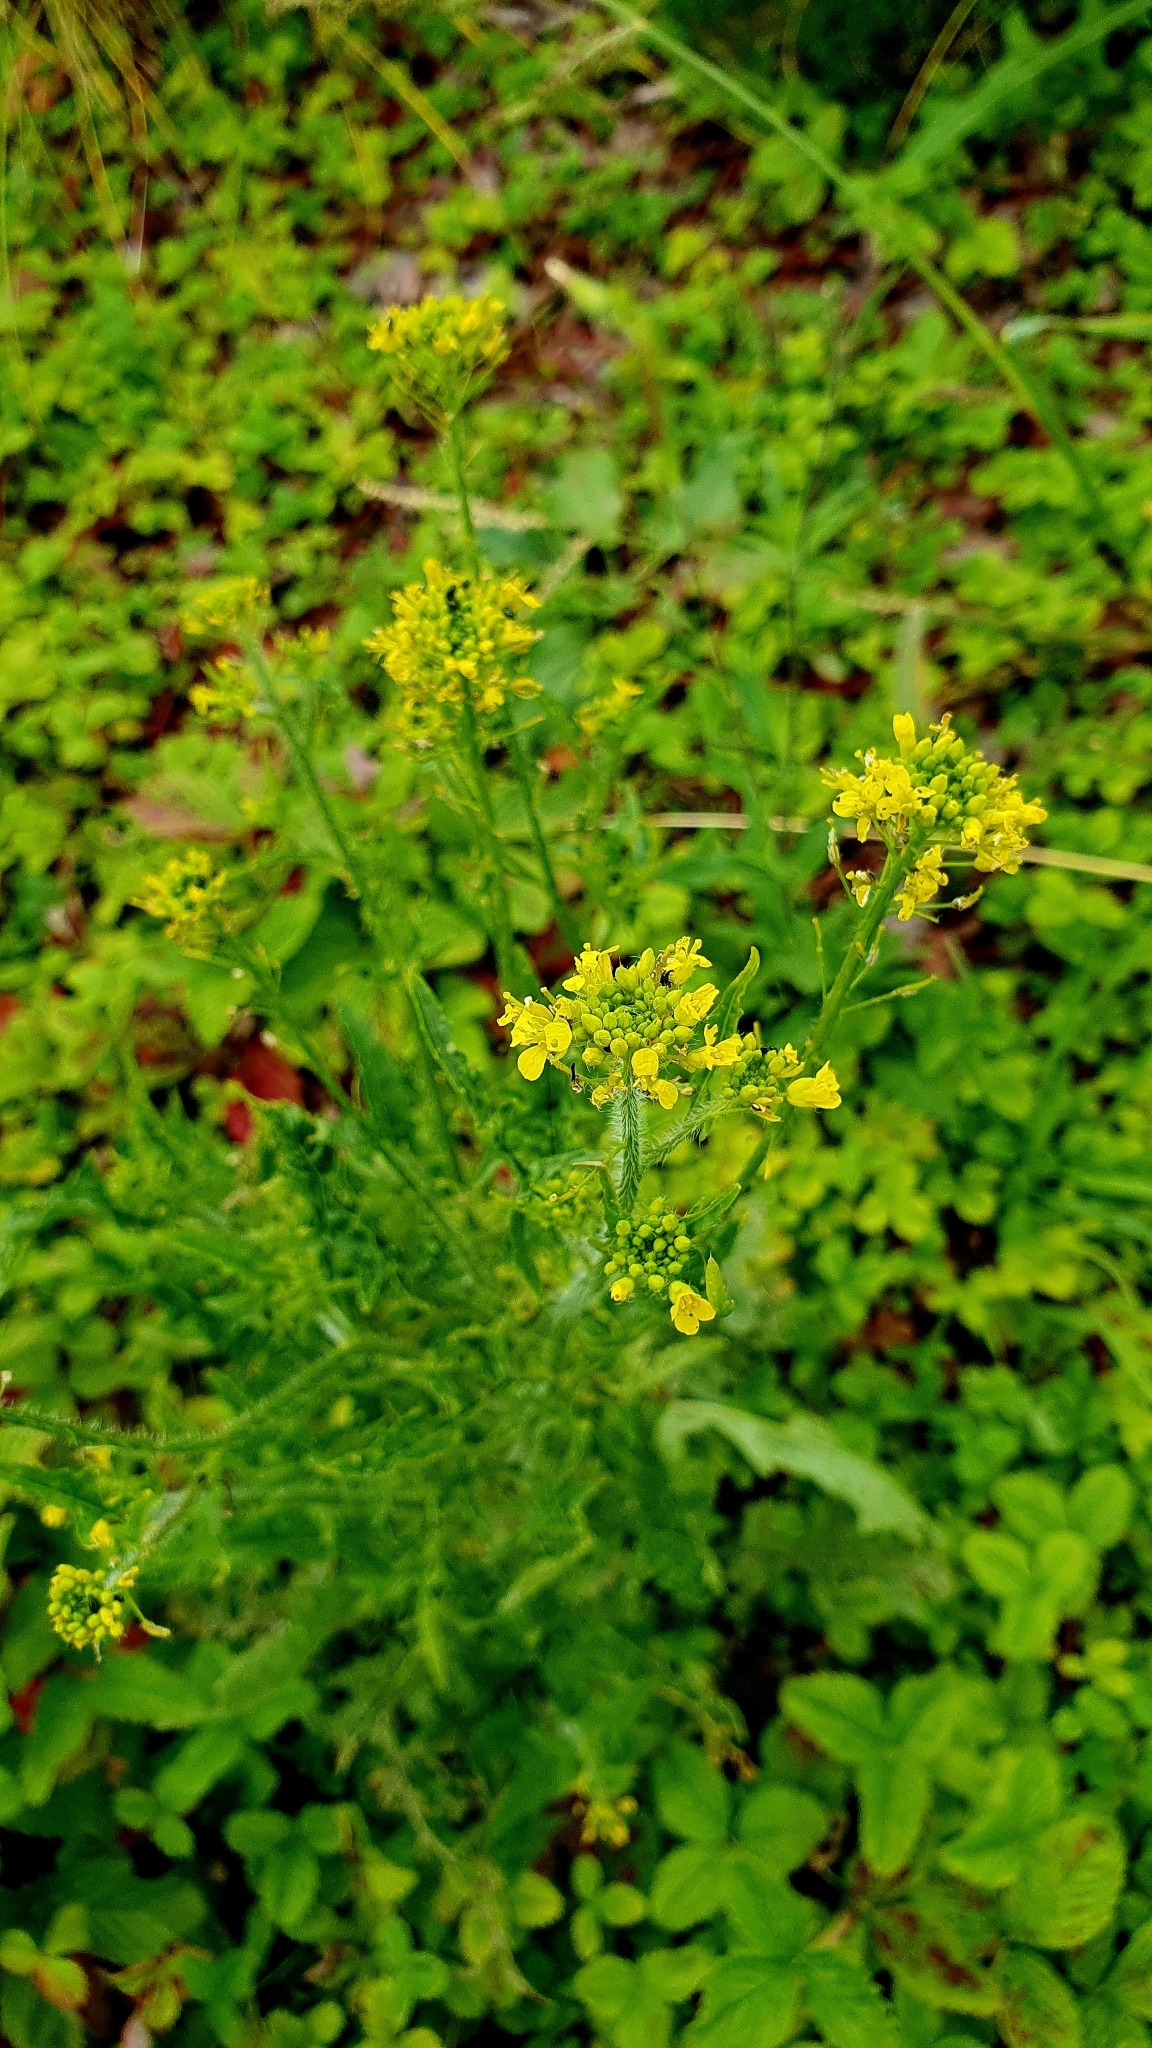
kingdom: Plantae
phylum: Tracheophyta
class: Magnoliopsida
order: Brassicales
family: Brassicaceae
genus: Sisymbrium
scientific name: Sisymbrium loeselii
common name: False london-rocket
